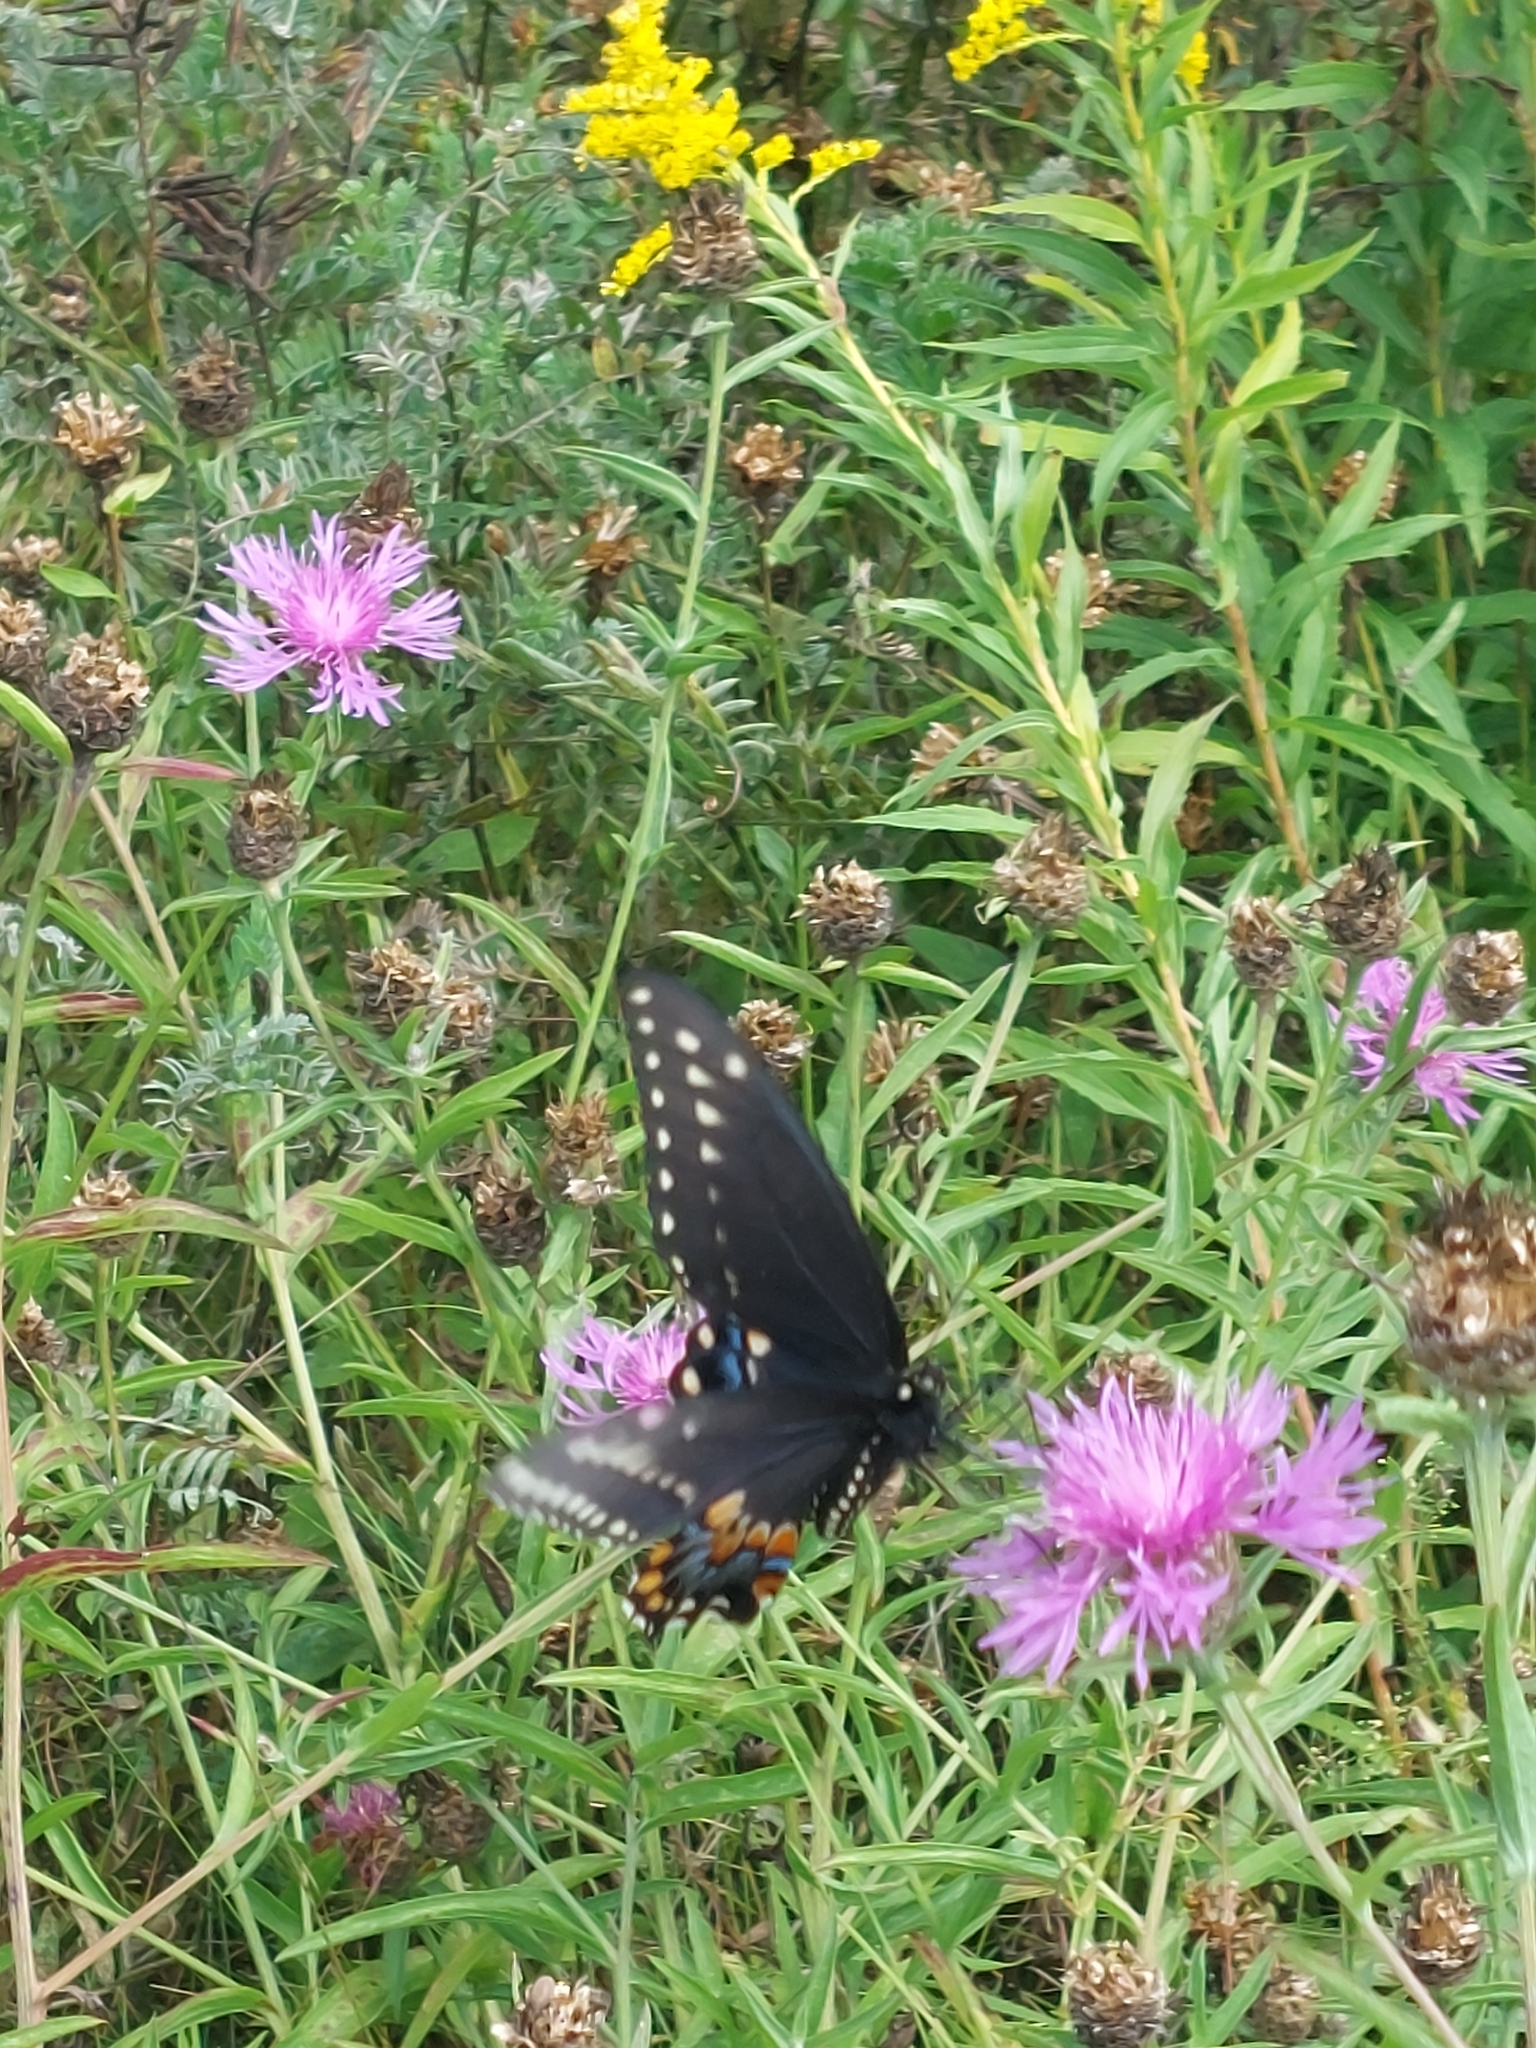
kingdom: Animalia
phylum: Arthropoda
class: Insecta
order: Lepidoptera
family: Papilionidae
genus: Papilio
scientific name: Papilio polyxenes
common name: Black swallowtail
